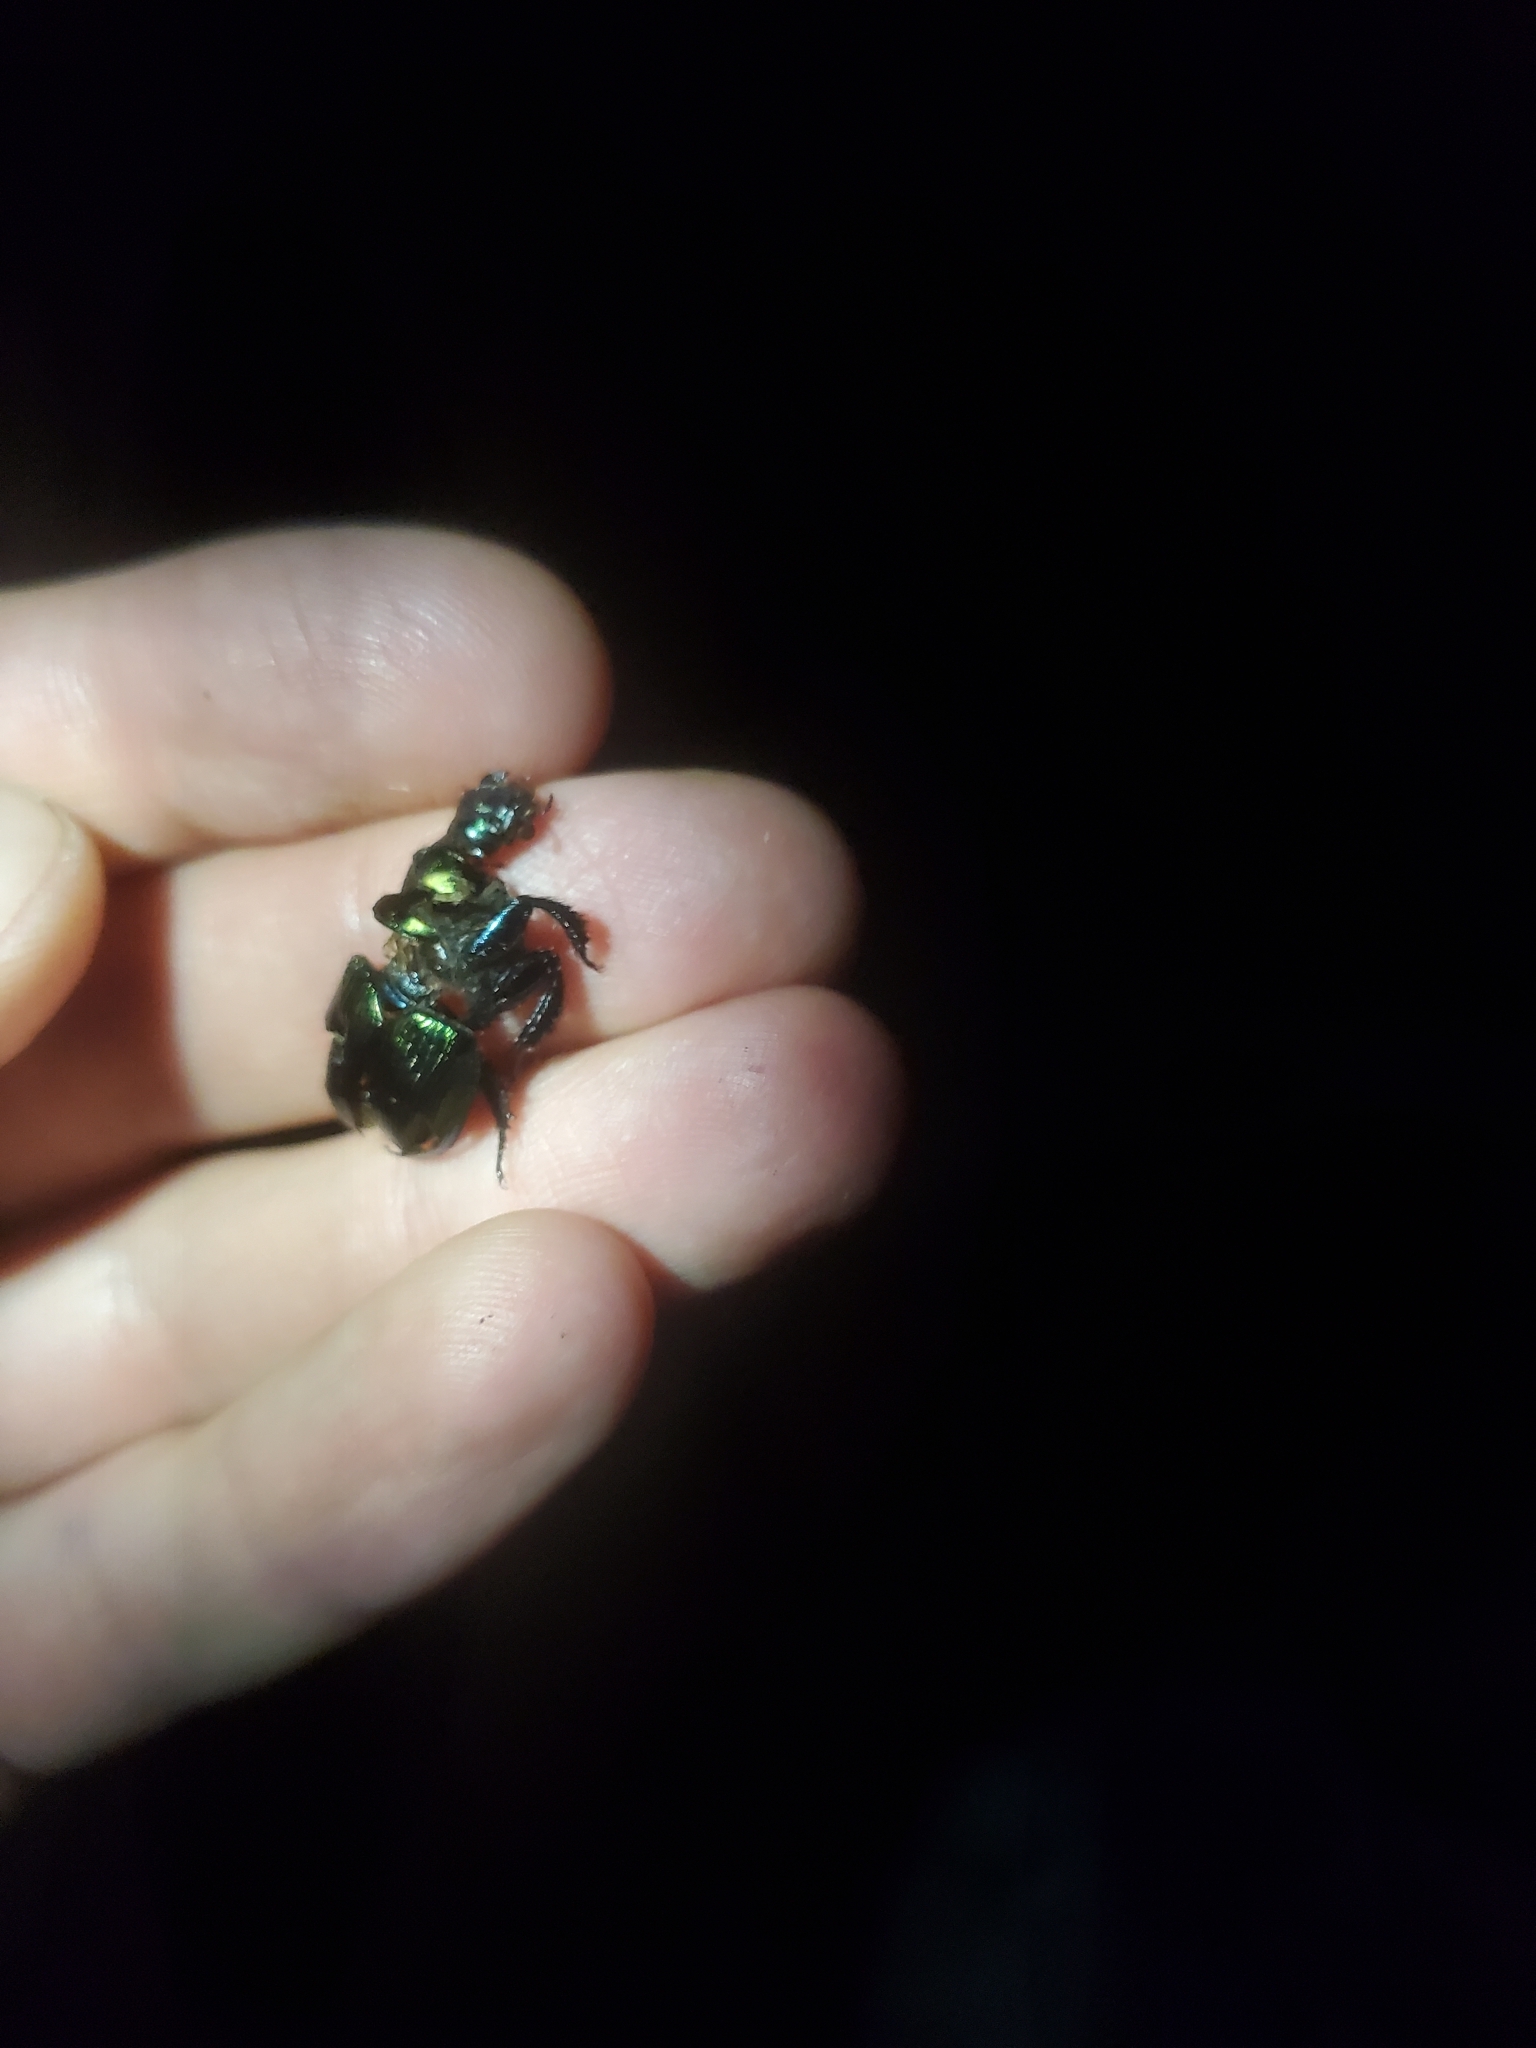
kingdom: Animalia
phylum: Arthropoda
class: Insecta
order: Coleoptera
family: Geotrupidae
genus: Geotrupes
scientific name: Geotrupes splendidus
